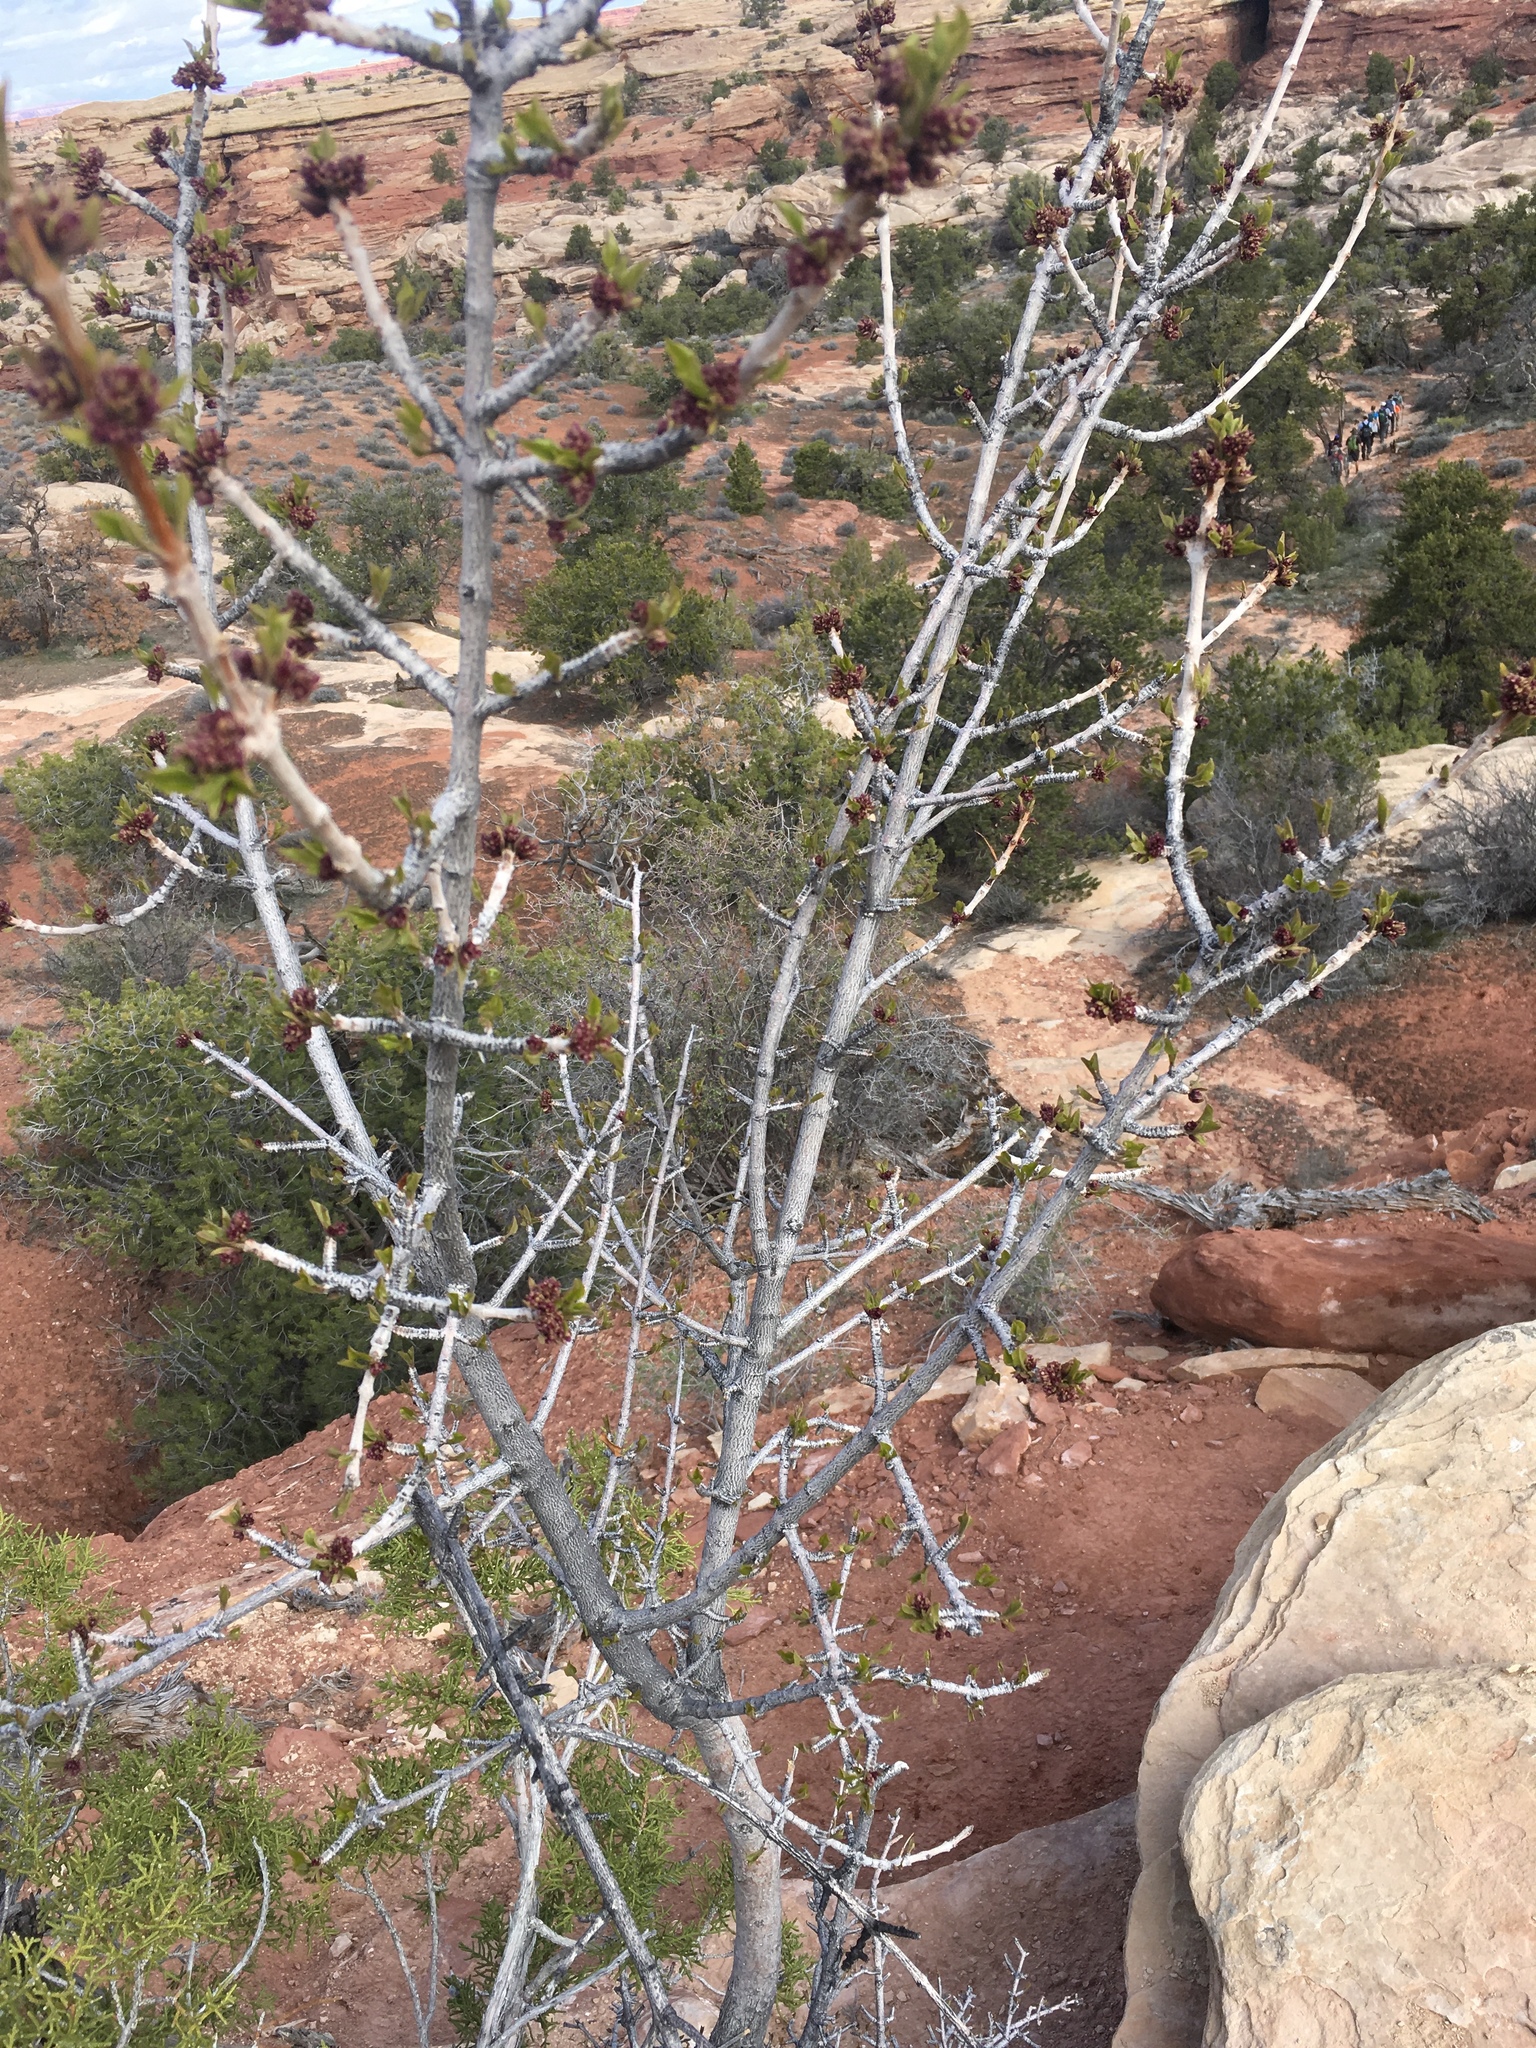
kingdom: Plantae
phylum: Tracheophyta
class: Magnoliopsida
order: Lamiales
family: Oleaceae
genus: Fraxinus
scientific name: Fraxinus anomala
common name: Utah ash
